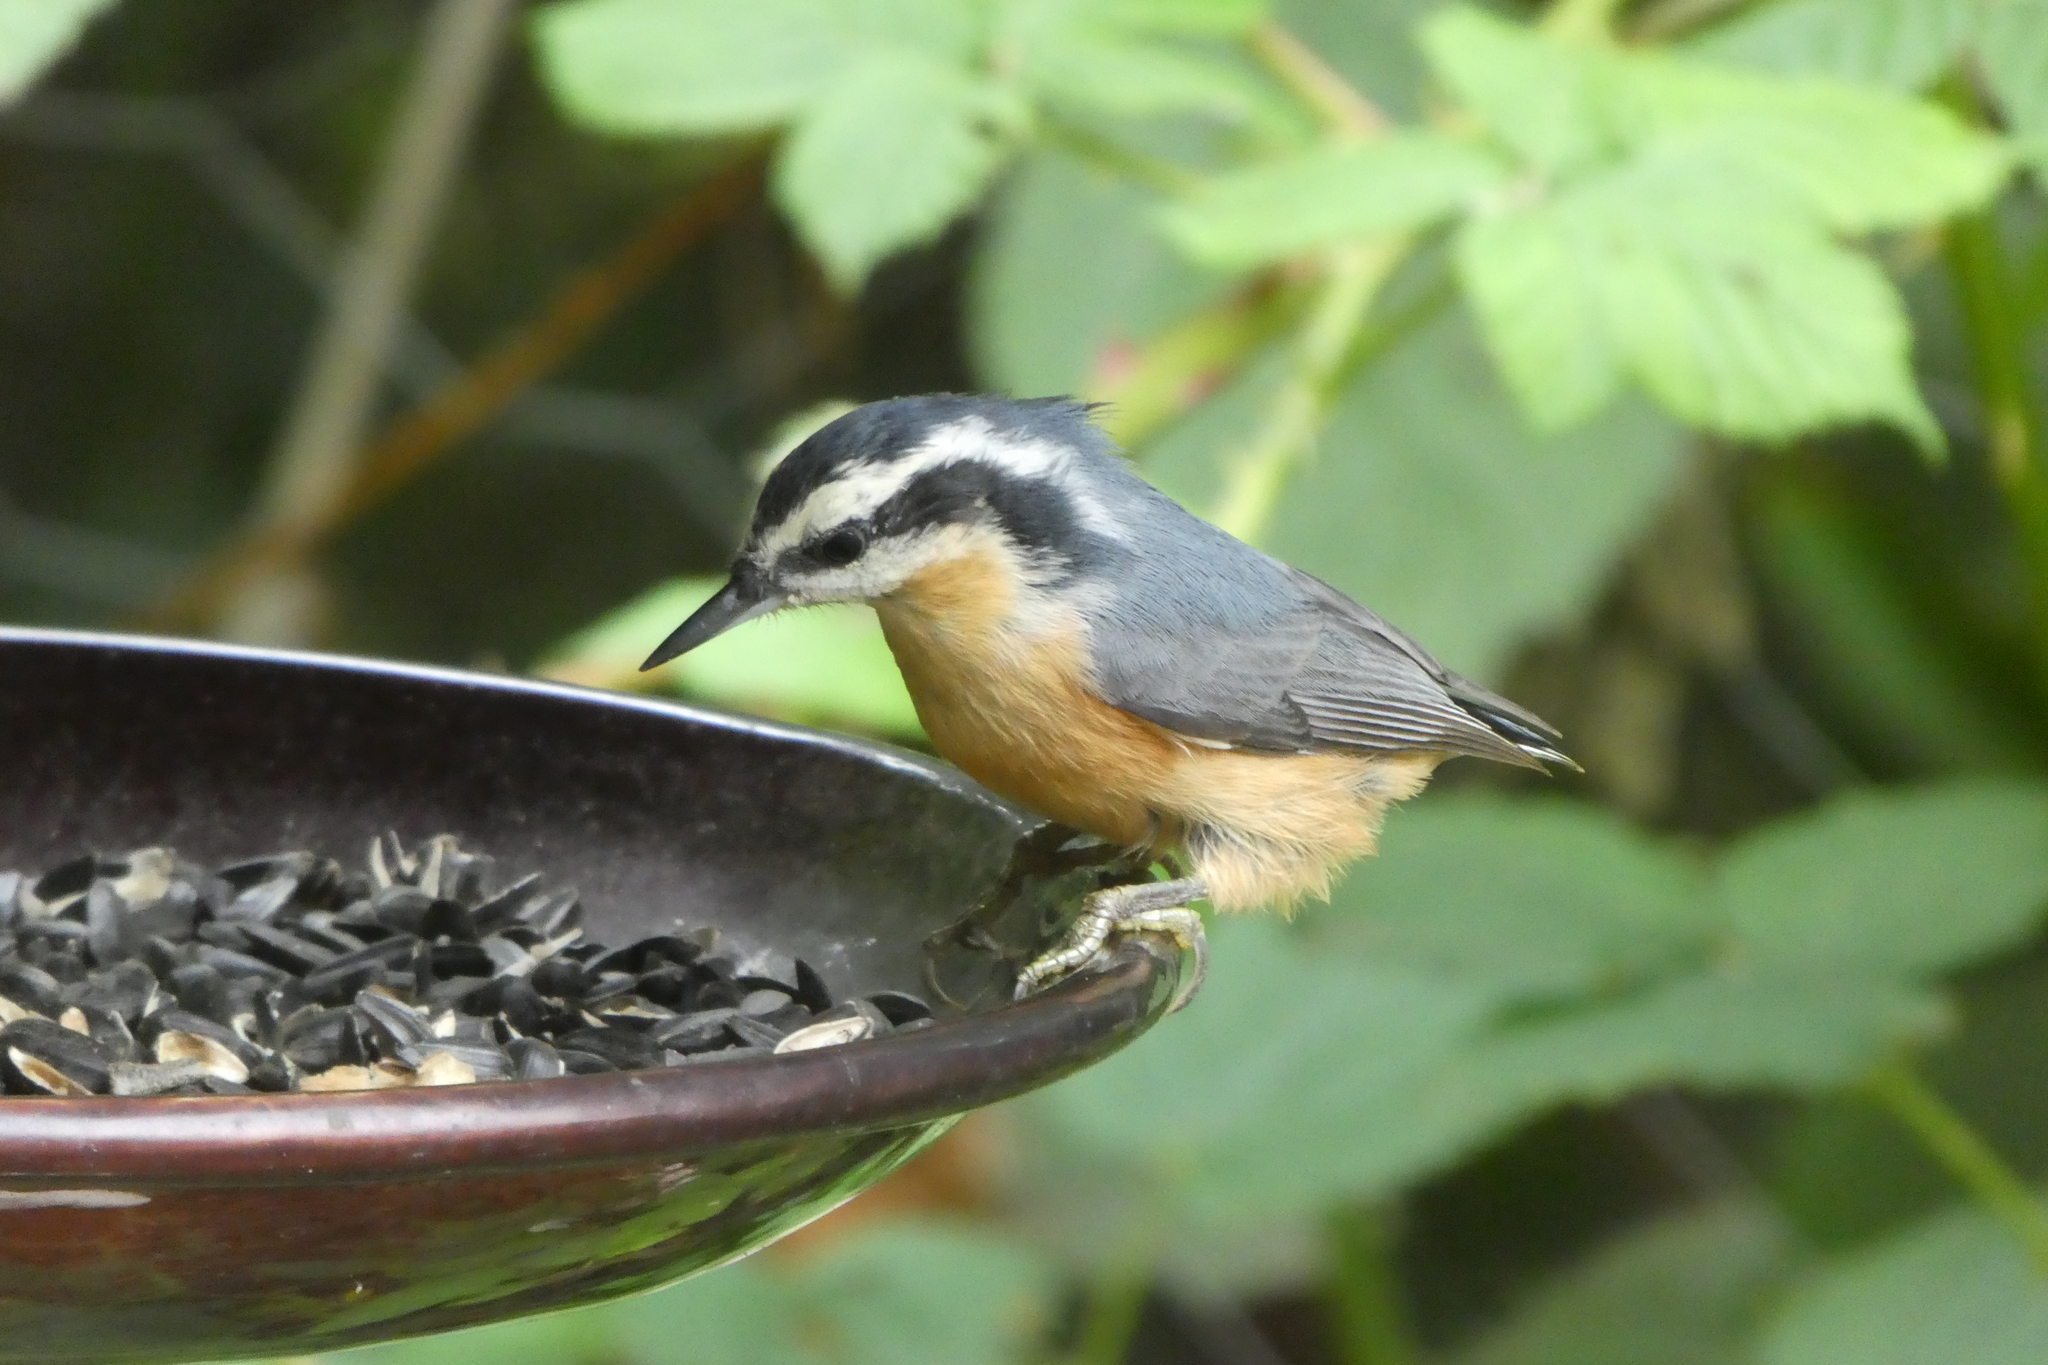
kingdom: Animalia
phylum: Chordata
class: Aves
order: Passeriformes
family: Sittidae
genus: Sitta
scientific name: Sitta canadensis
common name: Red-breasted nuthatch
